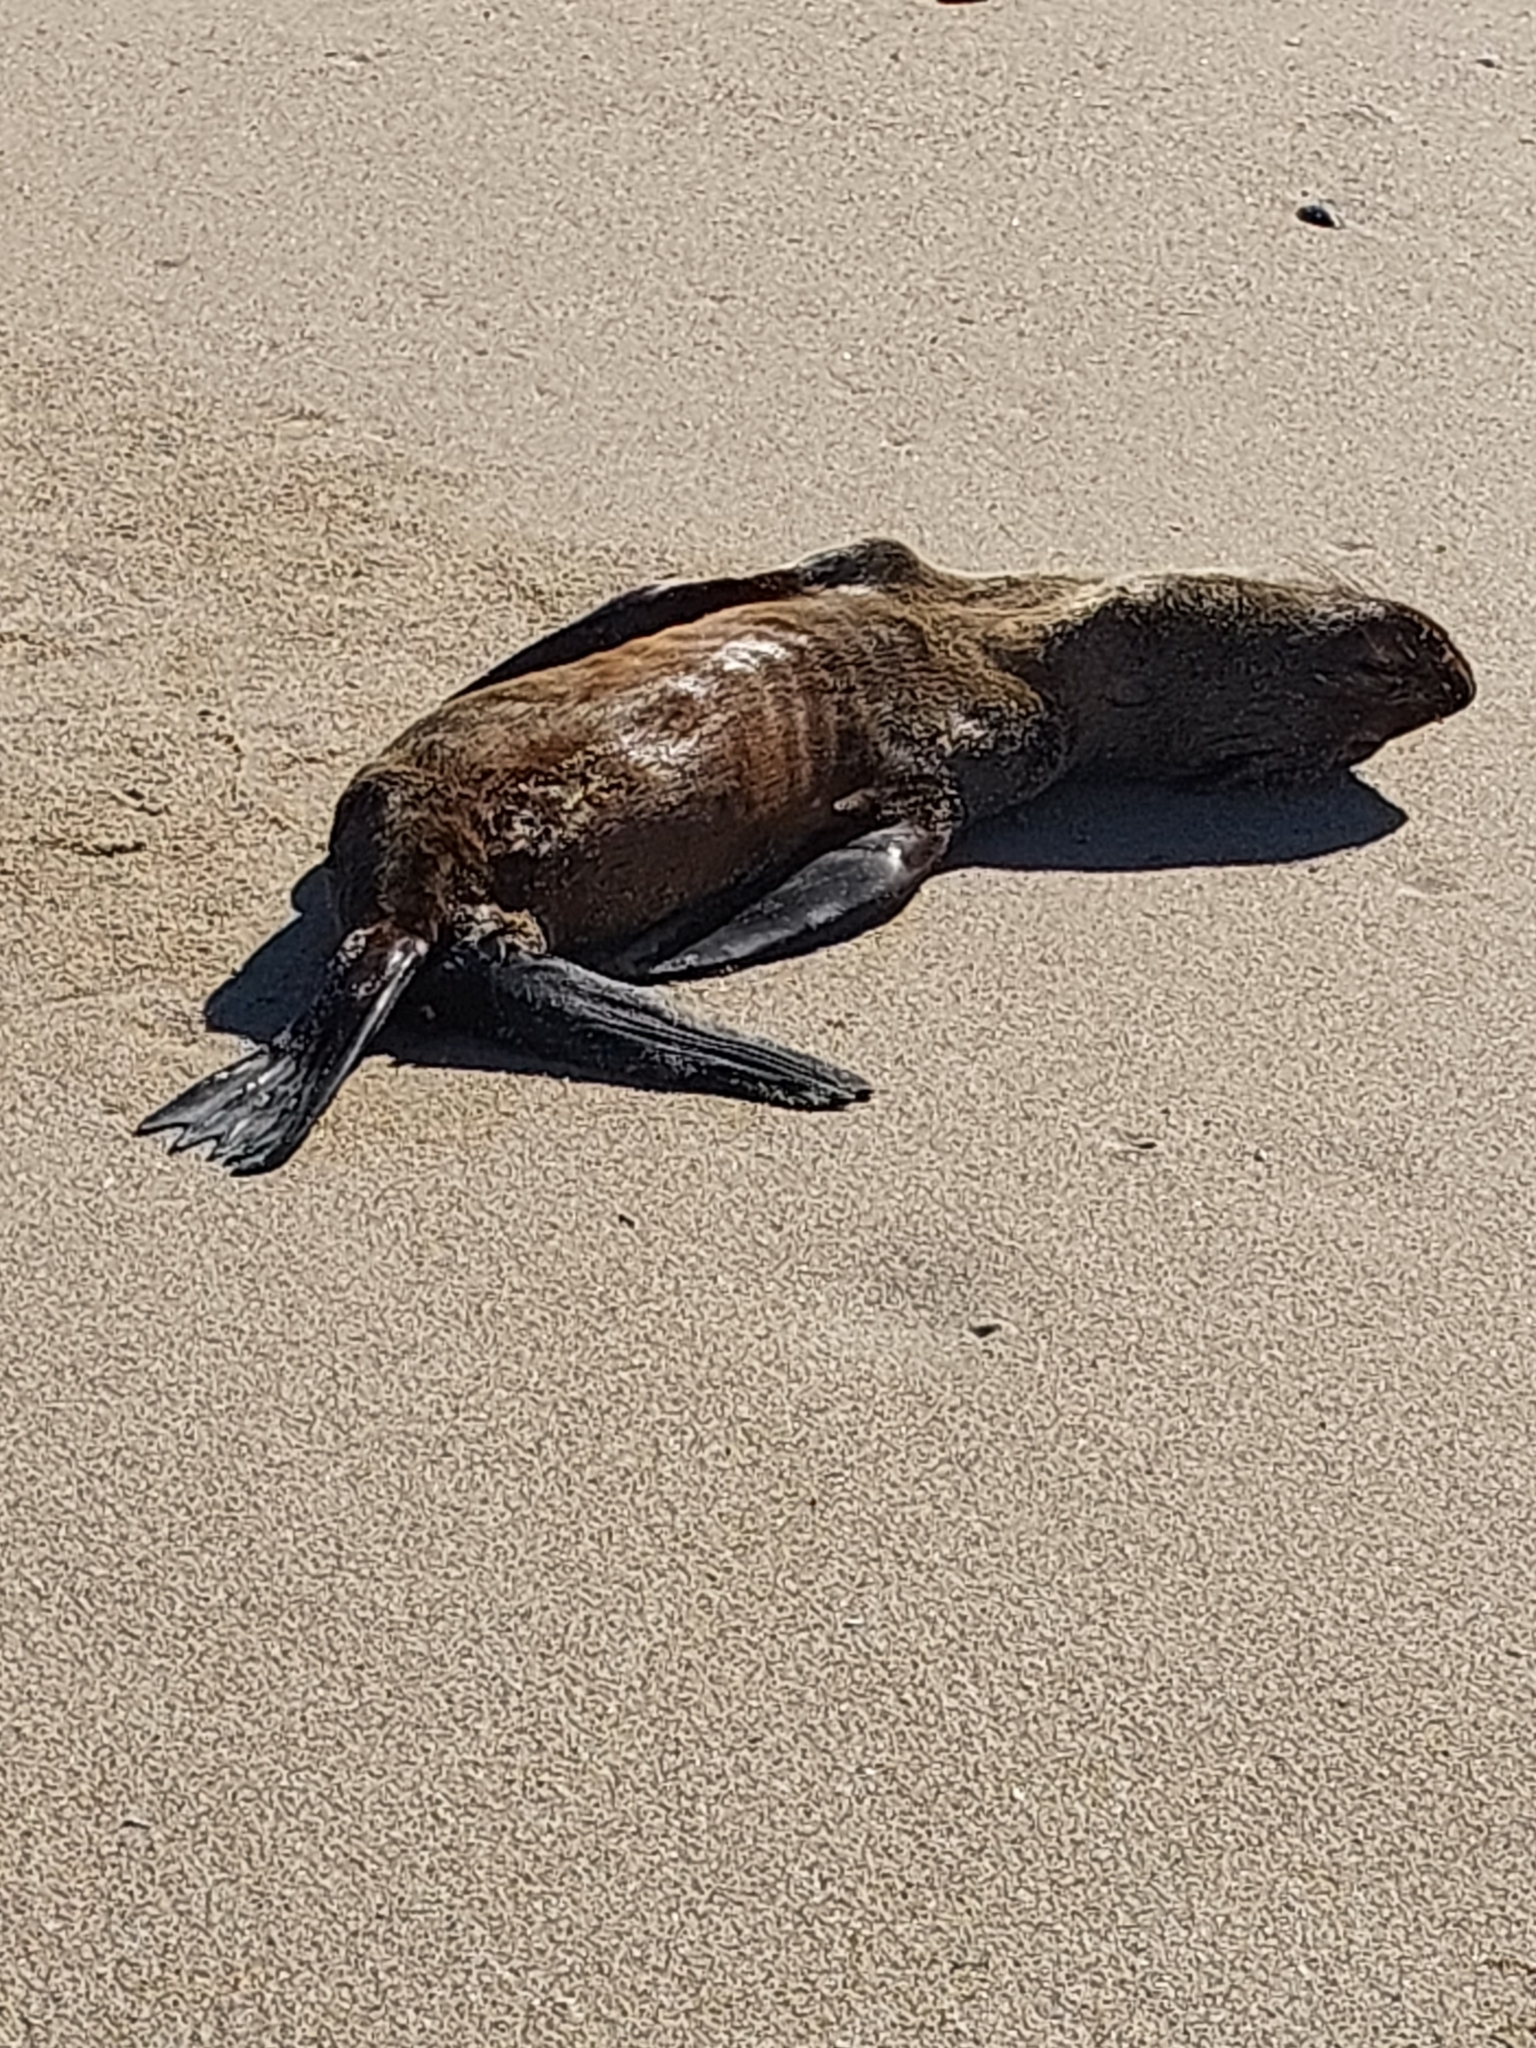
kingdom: Animalia
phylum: Chordata
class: Mammalia
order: Carnivora
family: Otariidae
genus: Arctocephalus
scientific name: Arctocephalus pusillus
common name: Brown fur seal
